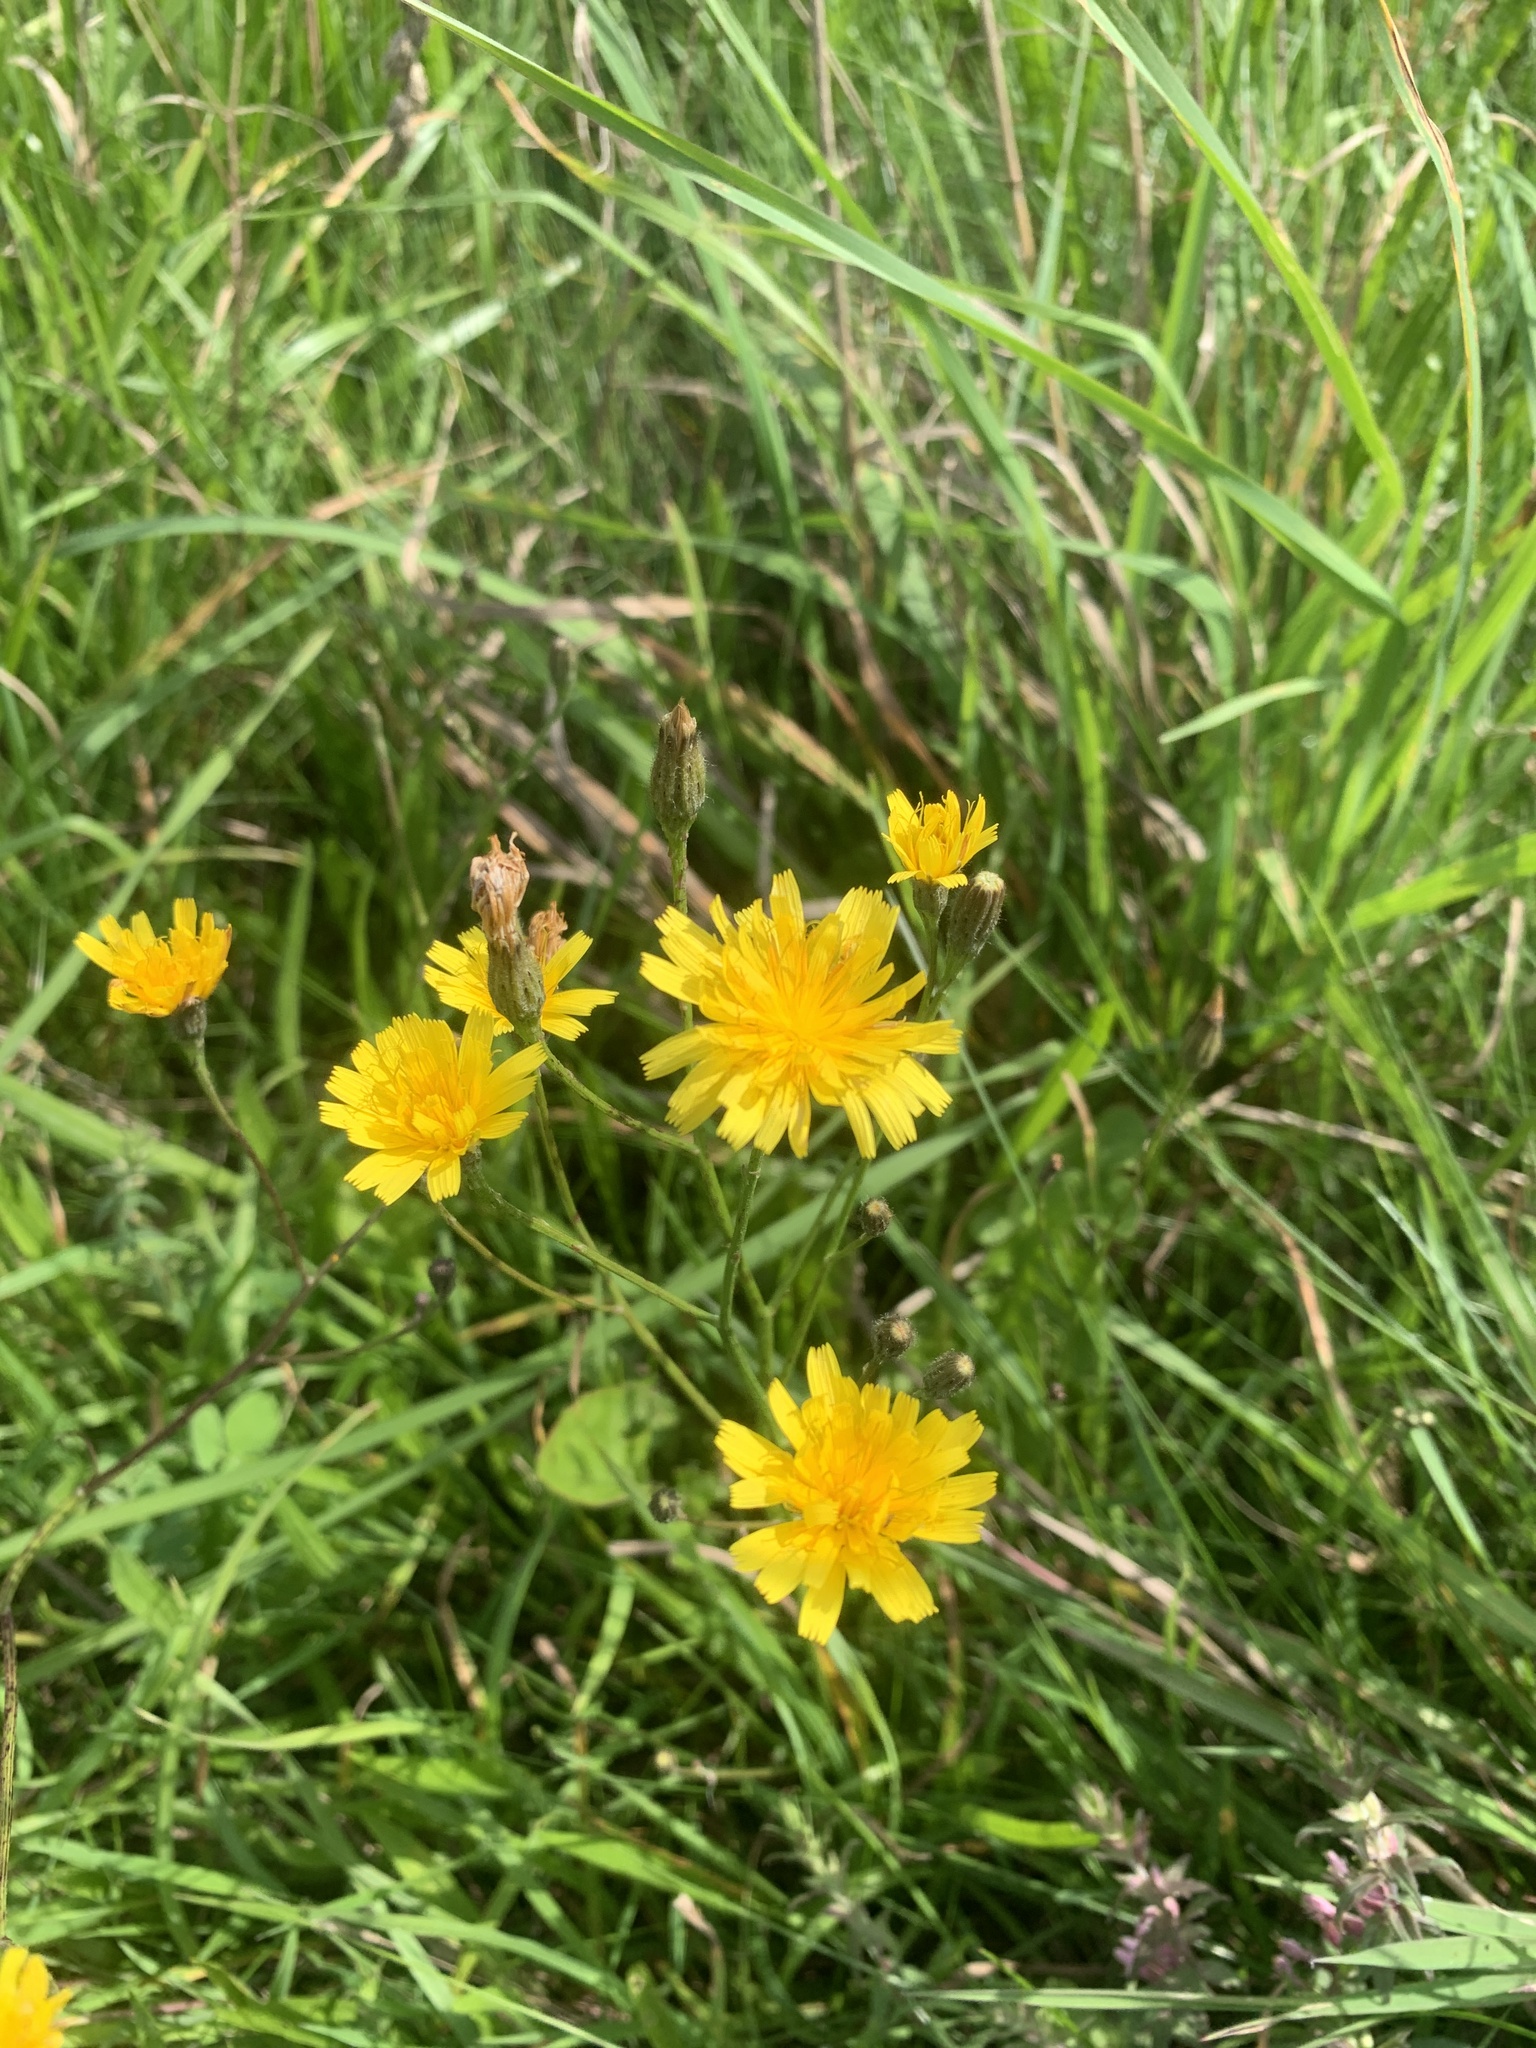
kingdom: Plantae
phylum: Tracheophyta
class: Magnoliopsida
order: Asterales
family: Asteraceae
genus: Scorzoneroides
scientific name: Scorzoneroides autumnalis
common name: Autumn hawkbit
